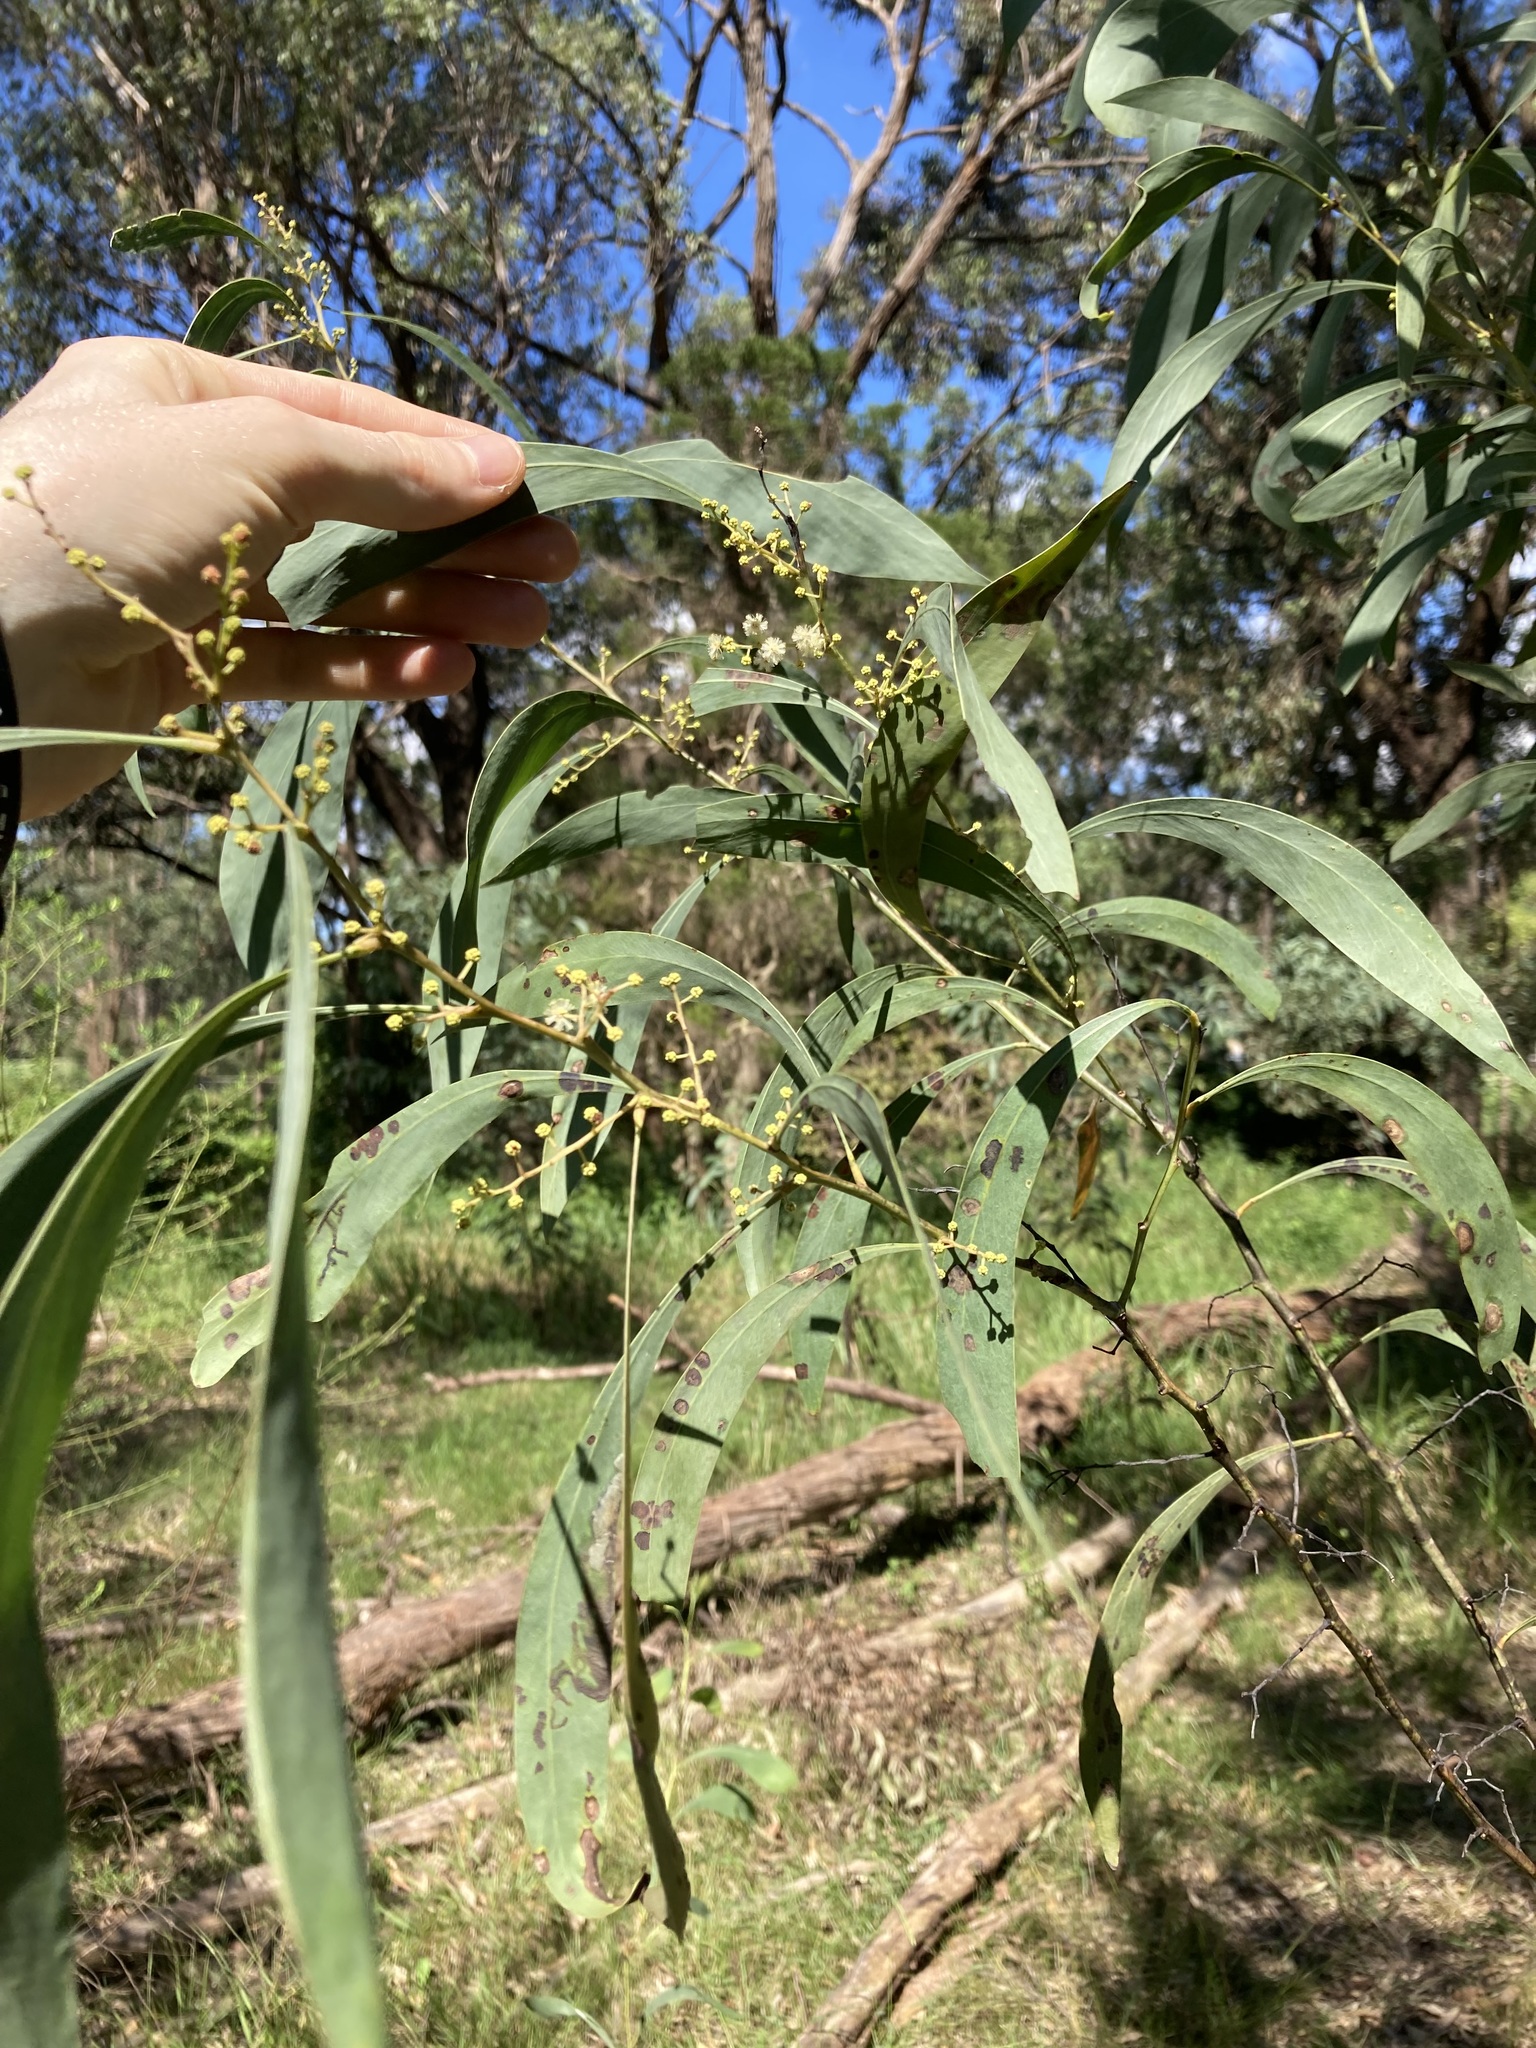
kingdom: Plantae
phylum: Tracheophyta
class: Magnoliopsida
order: Fabales
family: Fabaceae
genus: Acacia
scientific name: Acacia falcata
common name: Burra acacia
